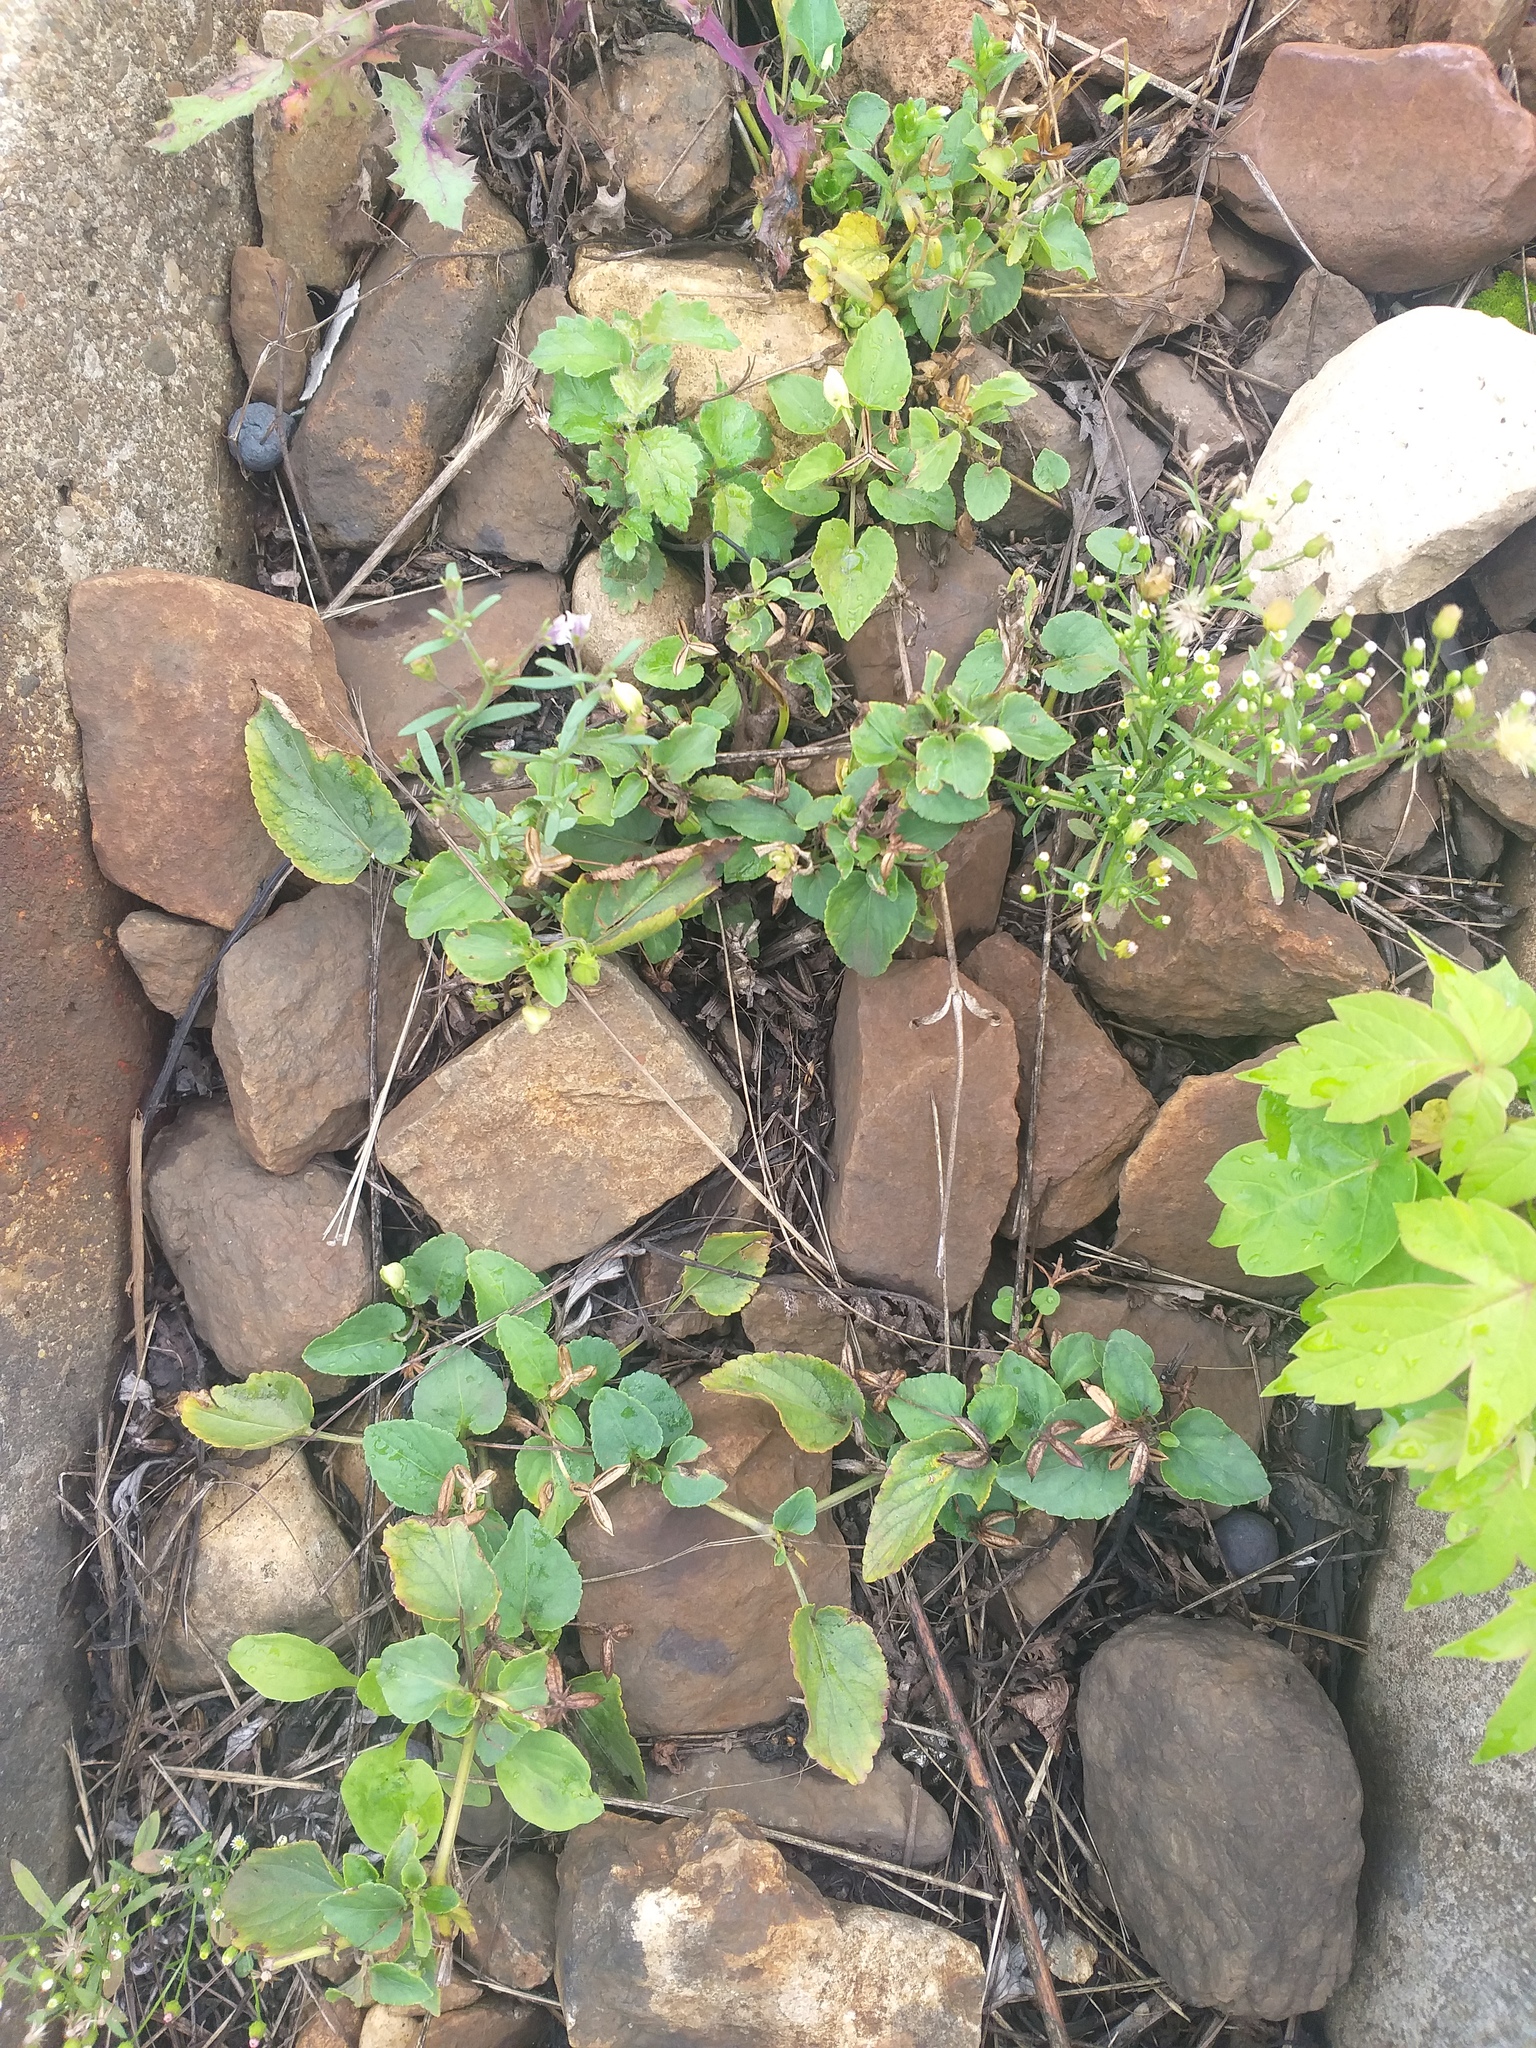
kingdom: Plantae
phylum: Tracheophyta
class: Magnoliopsida
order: Malpighiales
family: Violaceae
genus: Viola
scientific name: Viola canina
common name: Heath dog-violet
